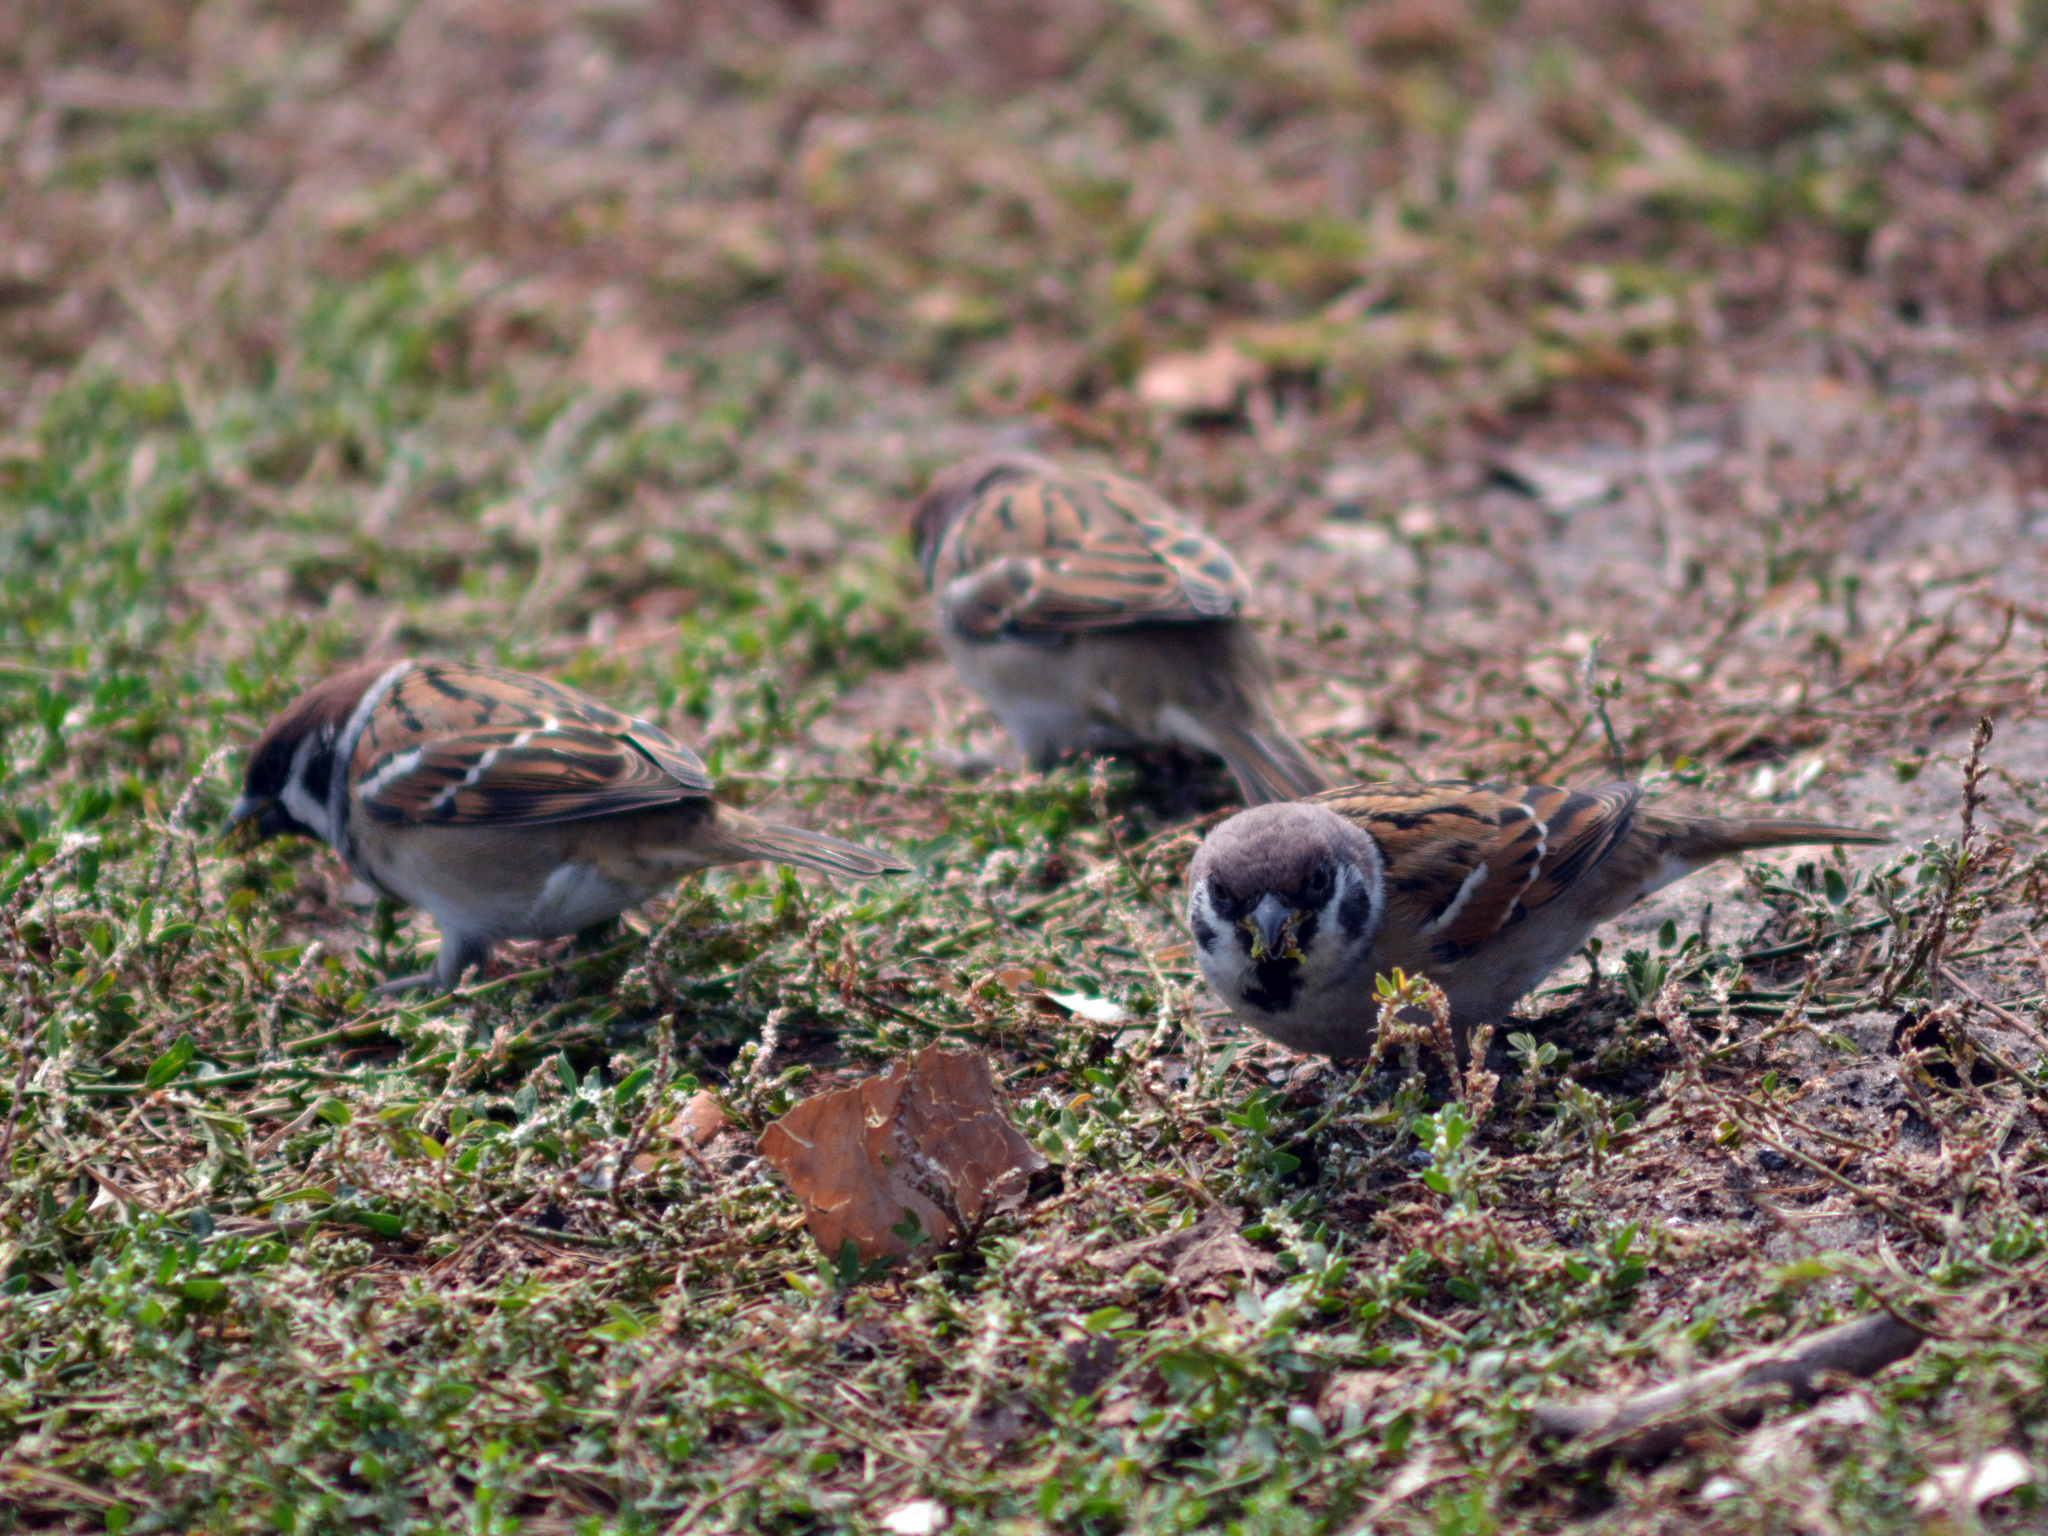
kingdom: Animalia
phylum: Chordata
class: Aves
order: Passeriformes
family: Passeridae
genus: Passer
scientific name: Passer montanus
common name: Eurasian tree sparrow
